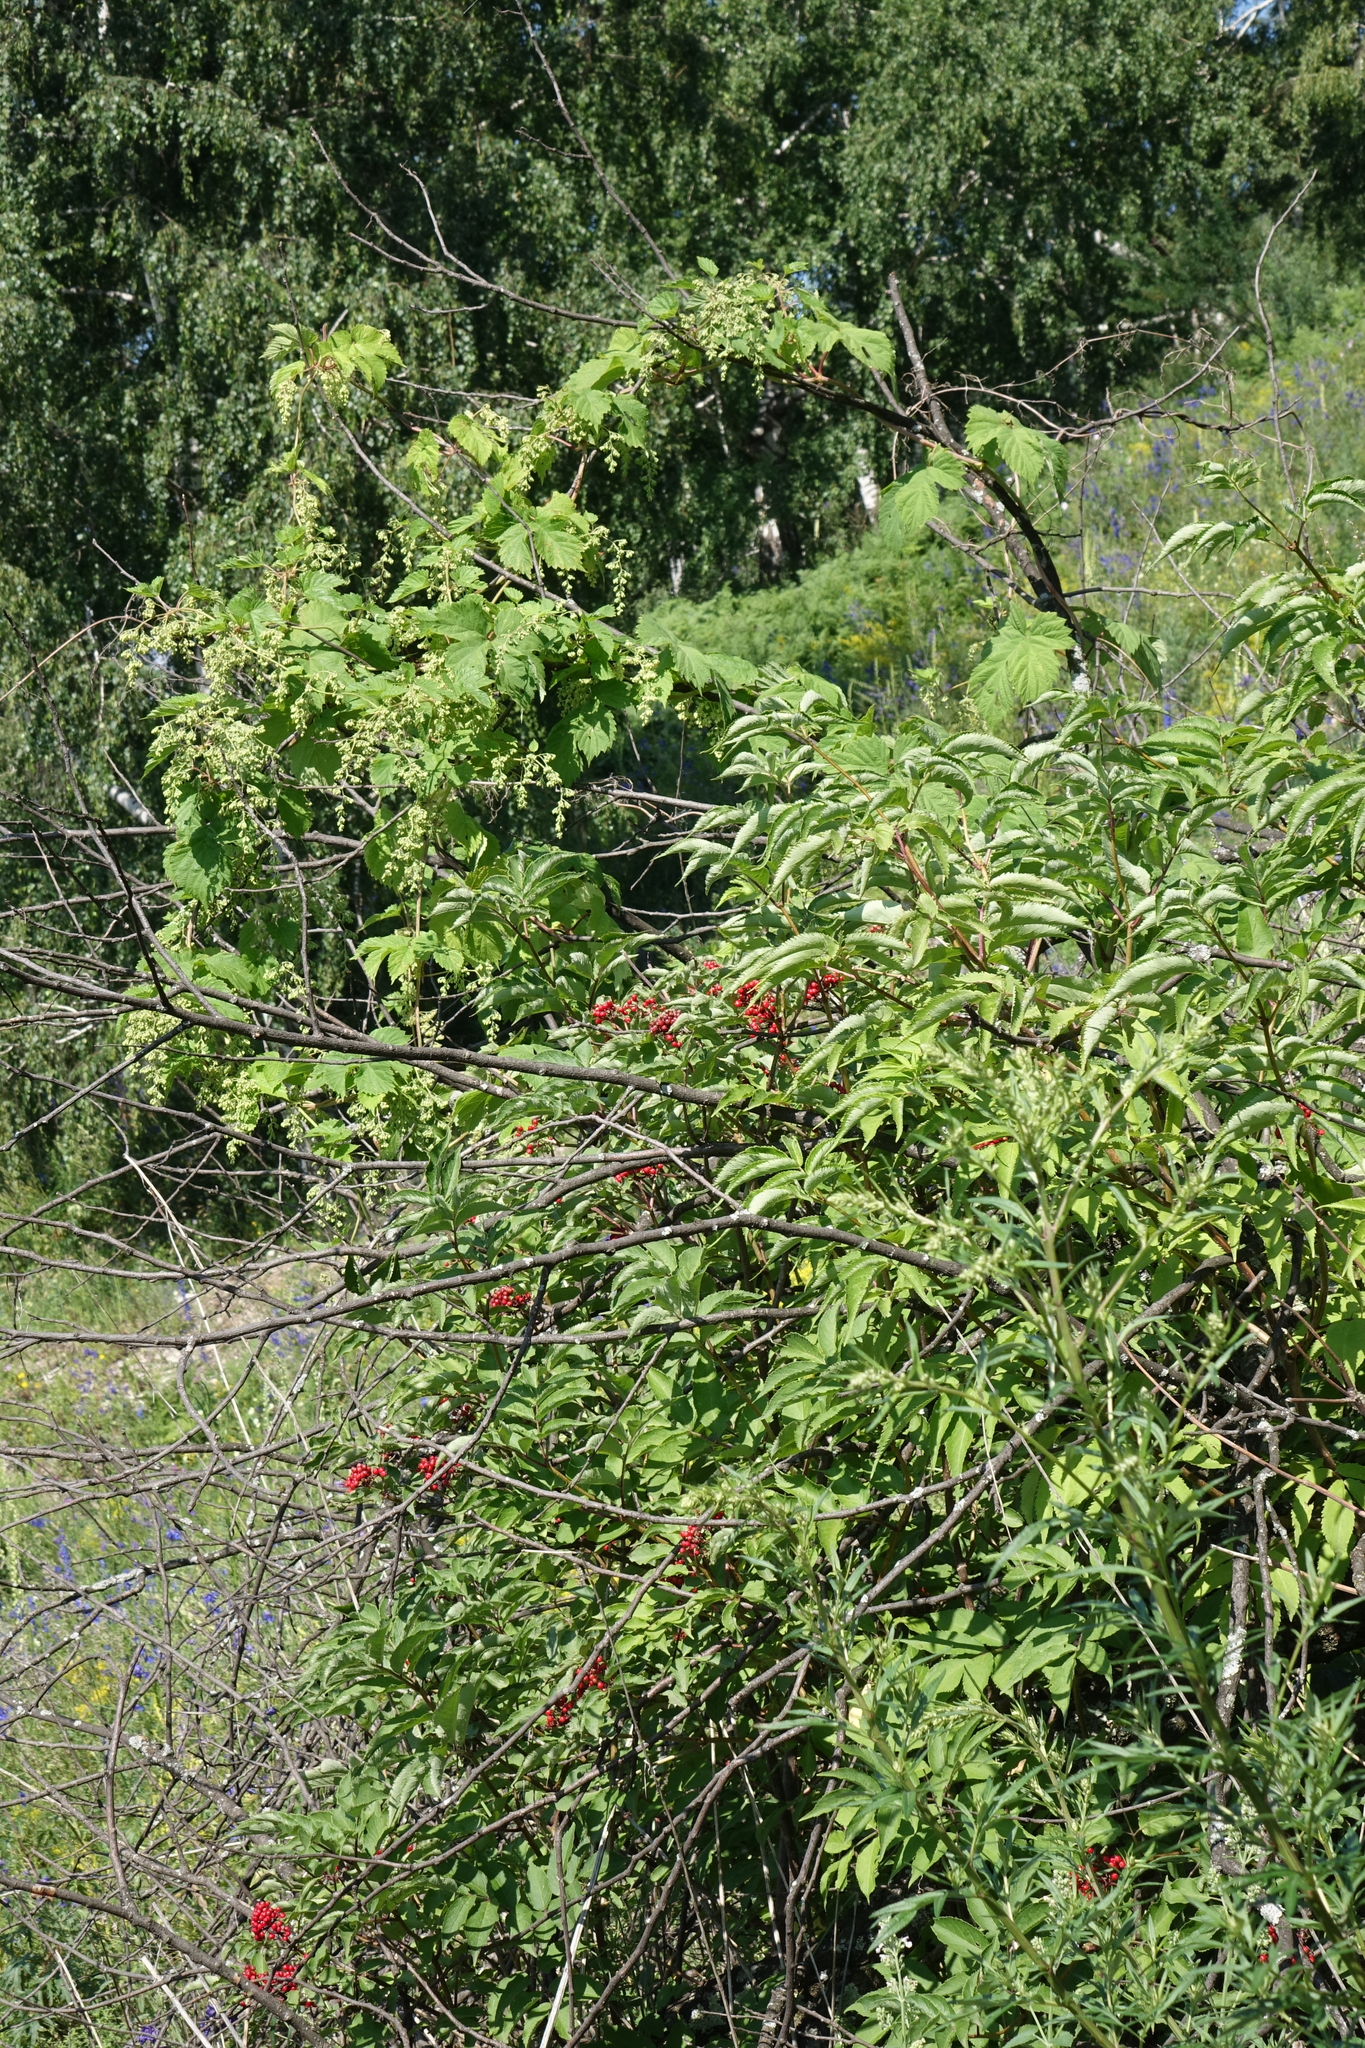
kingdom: Plantae
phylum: Tracheophyta
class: Magnoliopsida
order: Dipsacales
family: Viburnaceae
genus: Sambucus
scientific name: Sambucus sibirica
